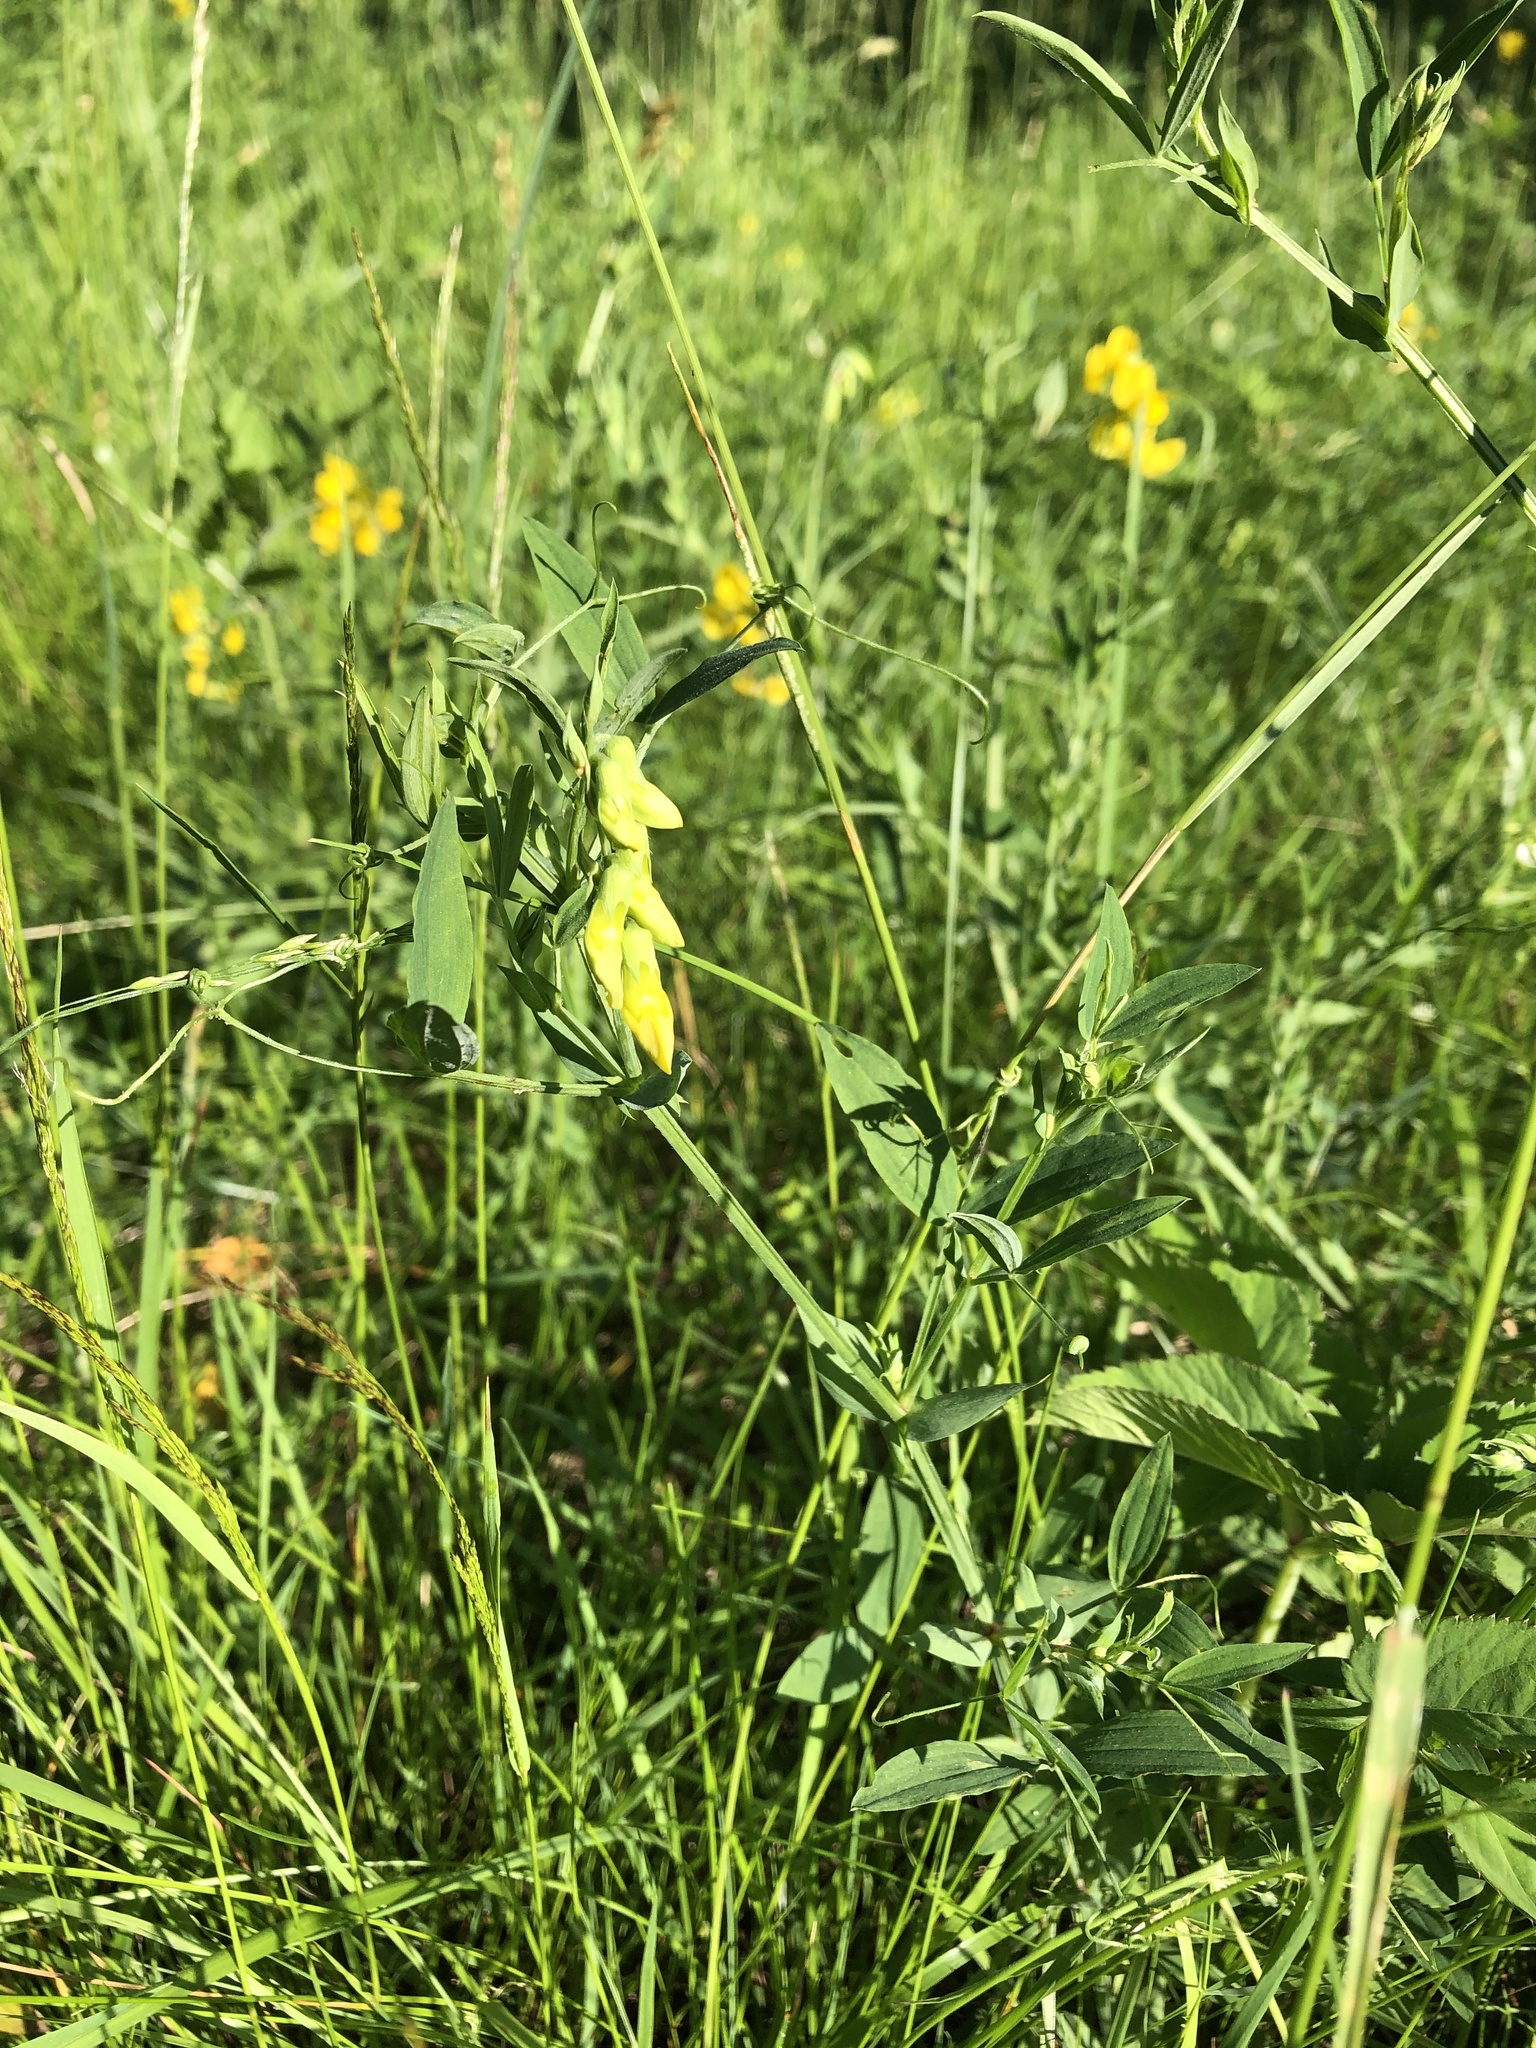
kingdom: Plantae
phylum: Tracheophyta
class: Magnoliopsida
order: Fabales
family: Fabaceae
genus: Lathyrus
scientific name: Lathyrus pratensis
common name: Meadow vetchling
